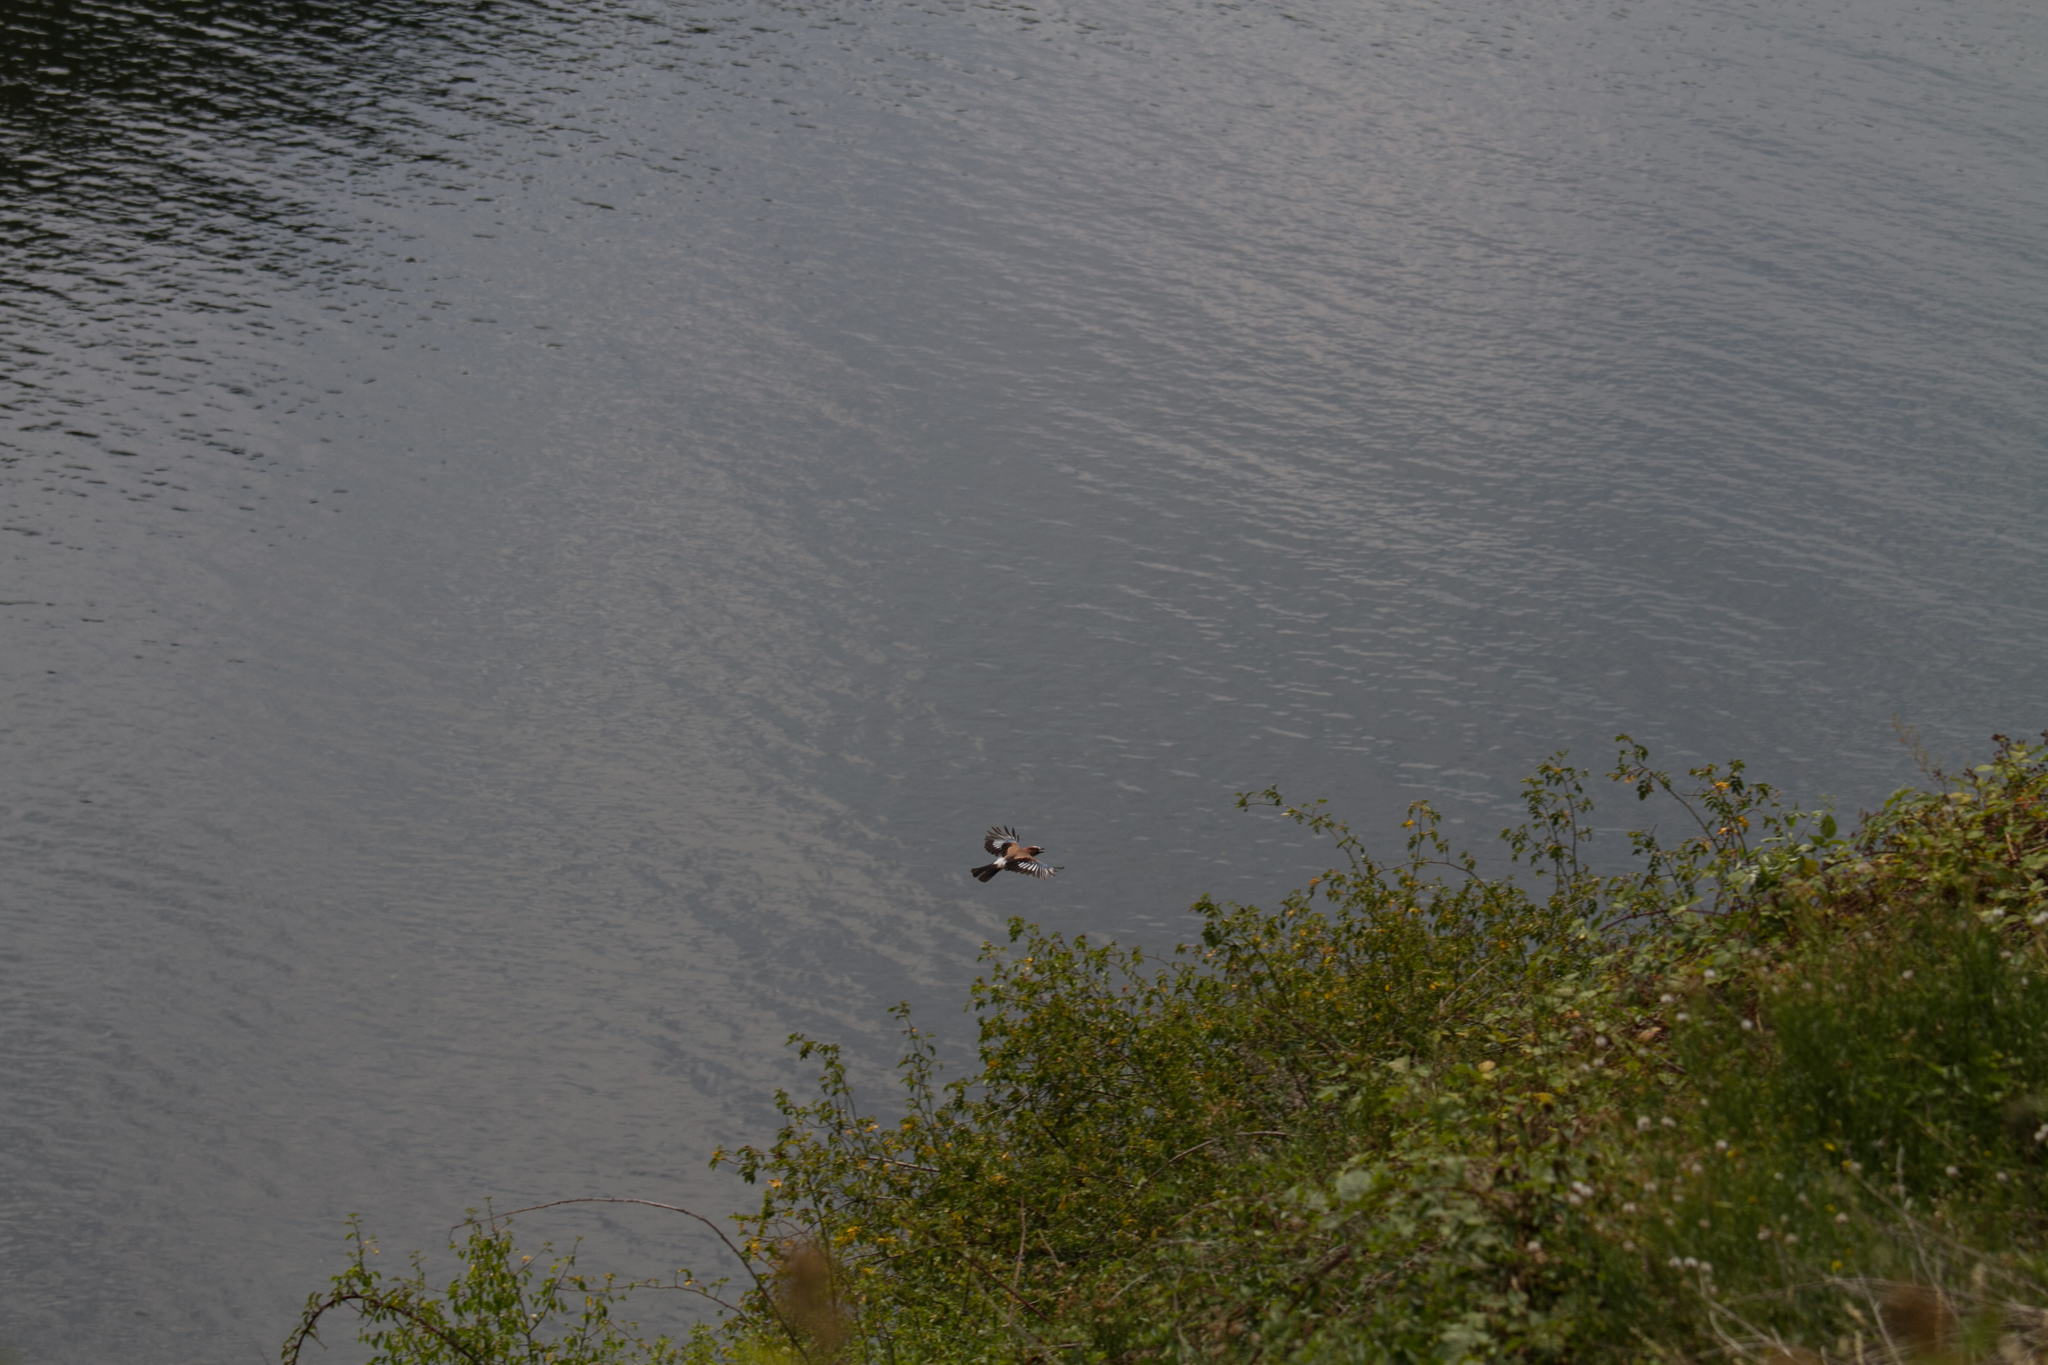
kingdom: Animalia
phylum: Chordata
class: Aves
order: Passeriformes
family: Corvidae
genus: Garrulus
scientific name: Garrulus glandarius
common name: Eurasian jay
